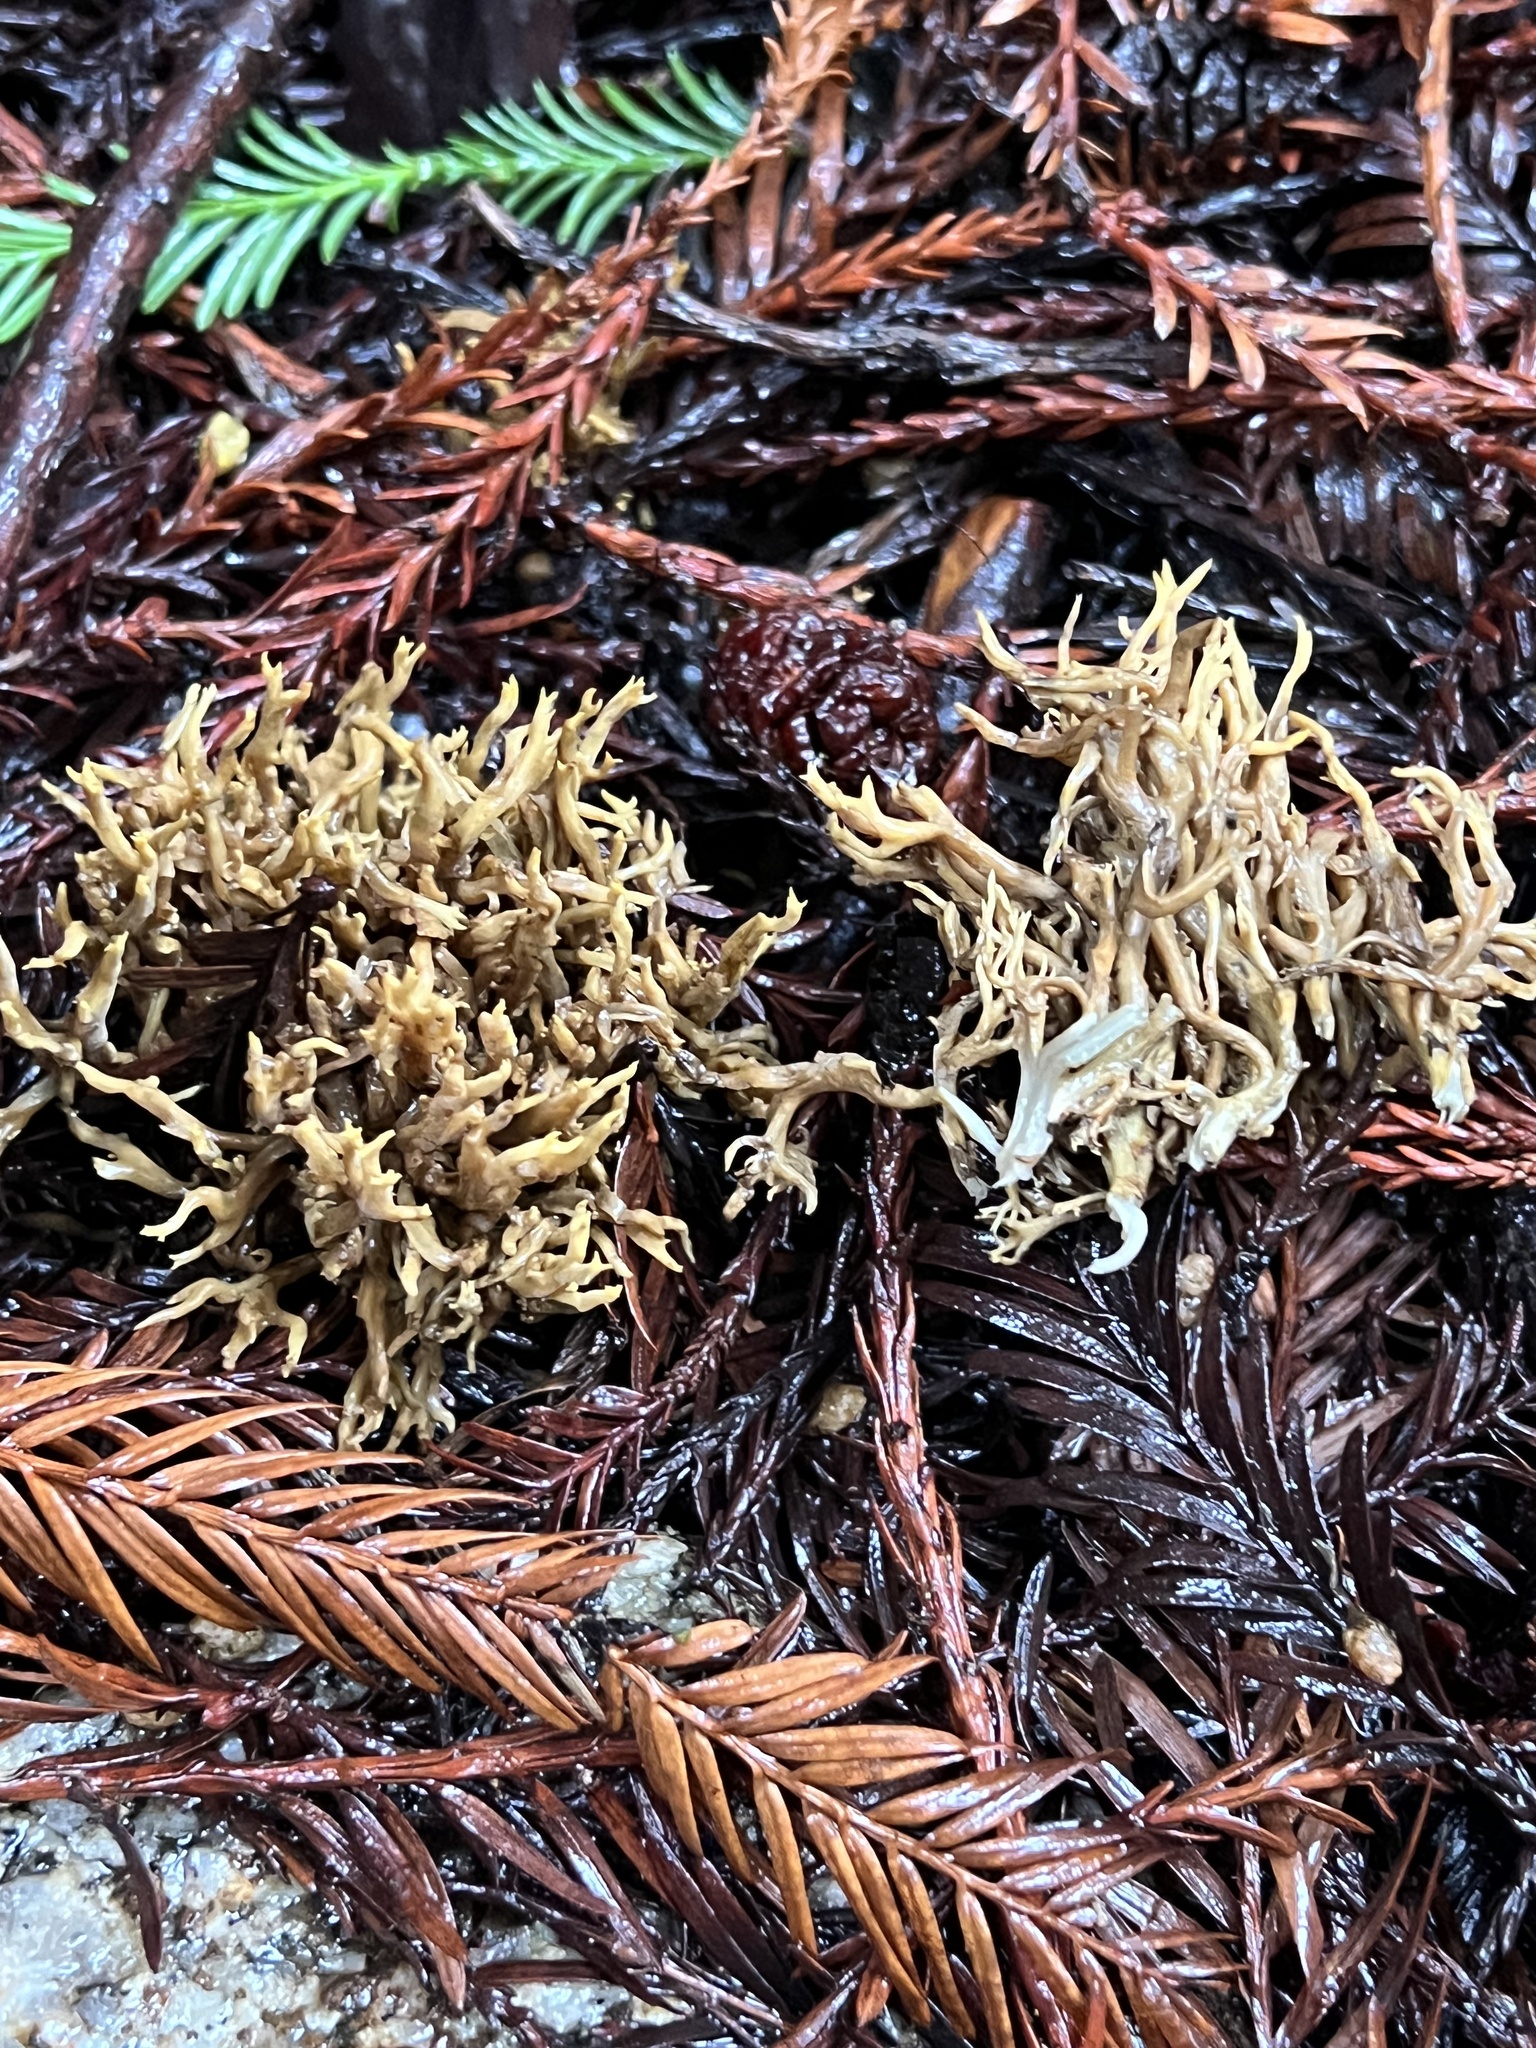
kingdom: Fungi
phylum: Basidiomycota
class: Agaricomycetes
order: Gomphales
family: Gomphaceae
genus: Phaeoclavulina
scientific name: Phaeoclavulina myceliosa
